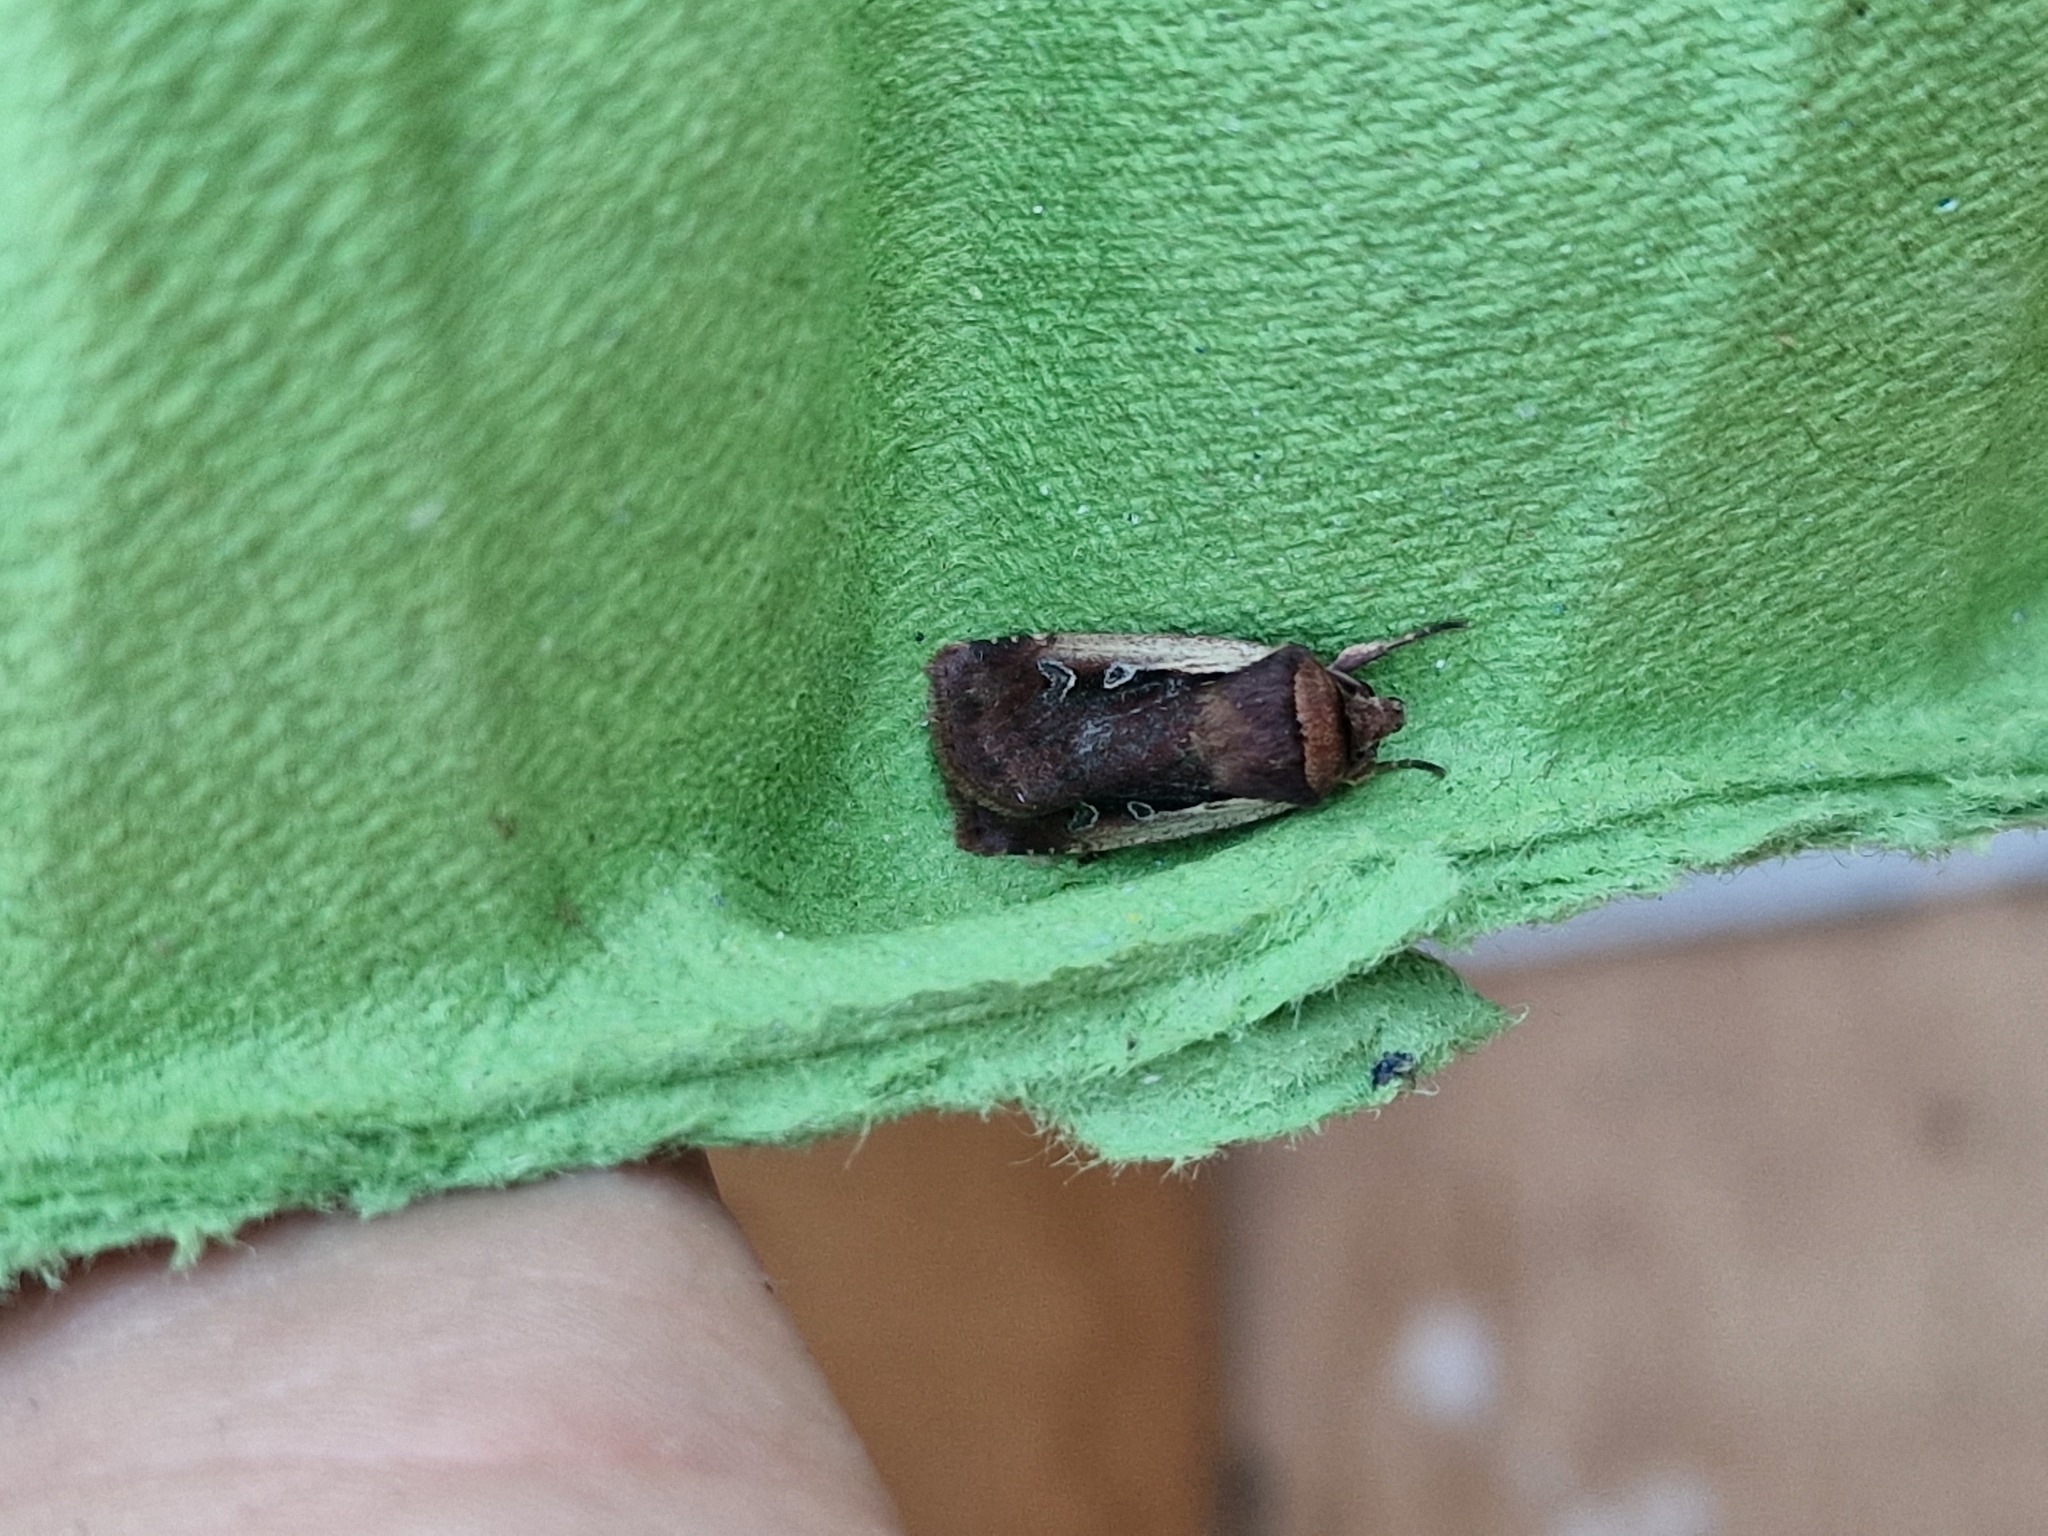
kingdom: Animalia
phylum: Arthropoda
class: Insecta
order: Lepidoptera
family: Noctuidae
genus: Ochropleura
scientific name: Ochropleura plecta
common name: Flame shoulder
